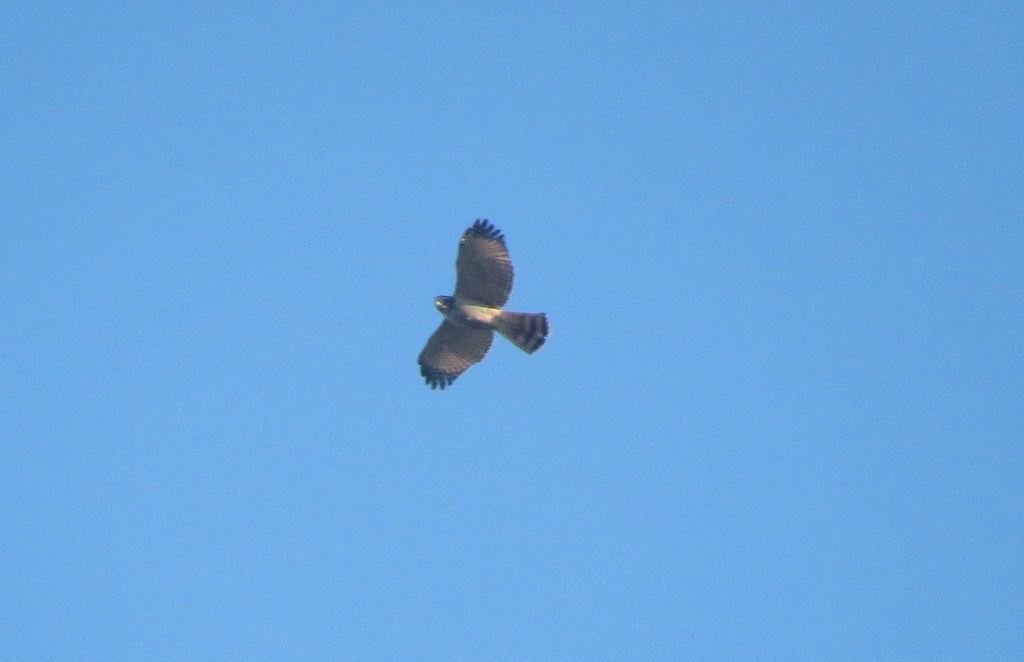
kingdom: Animalia
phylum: Chordata
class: Aves
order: Accipitriformes
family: Accipitridae
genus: Rupornis
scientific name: Rupornis magnirostris
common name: Roadside hawk
